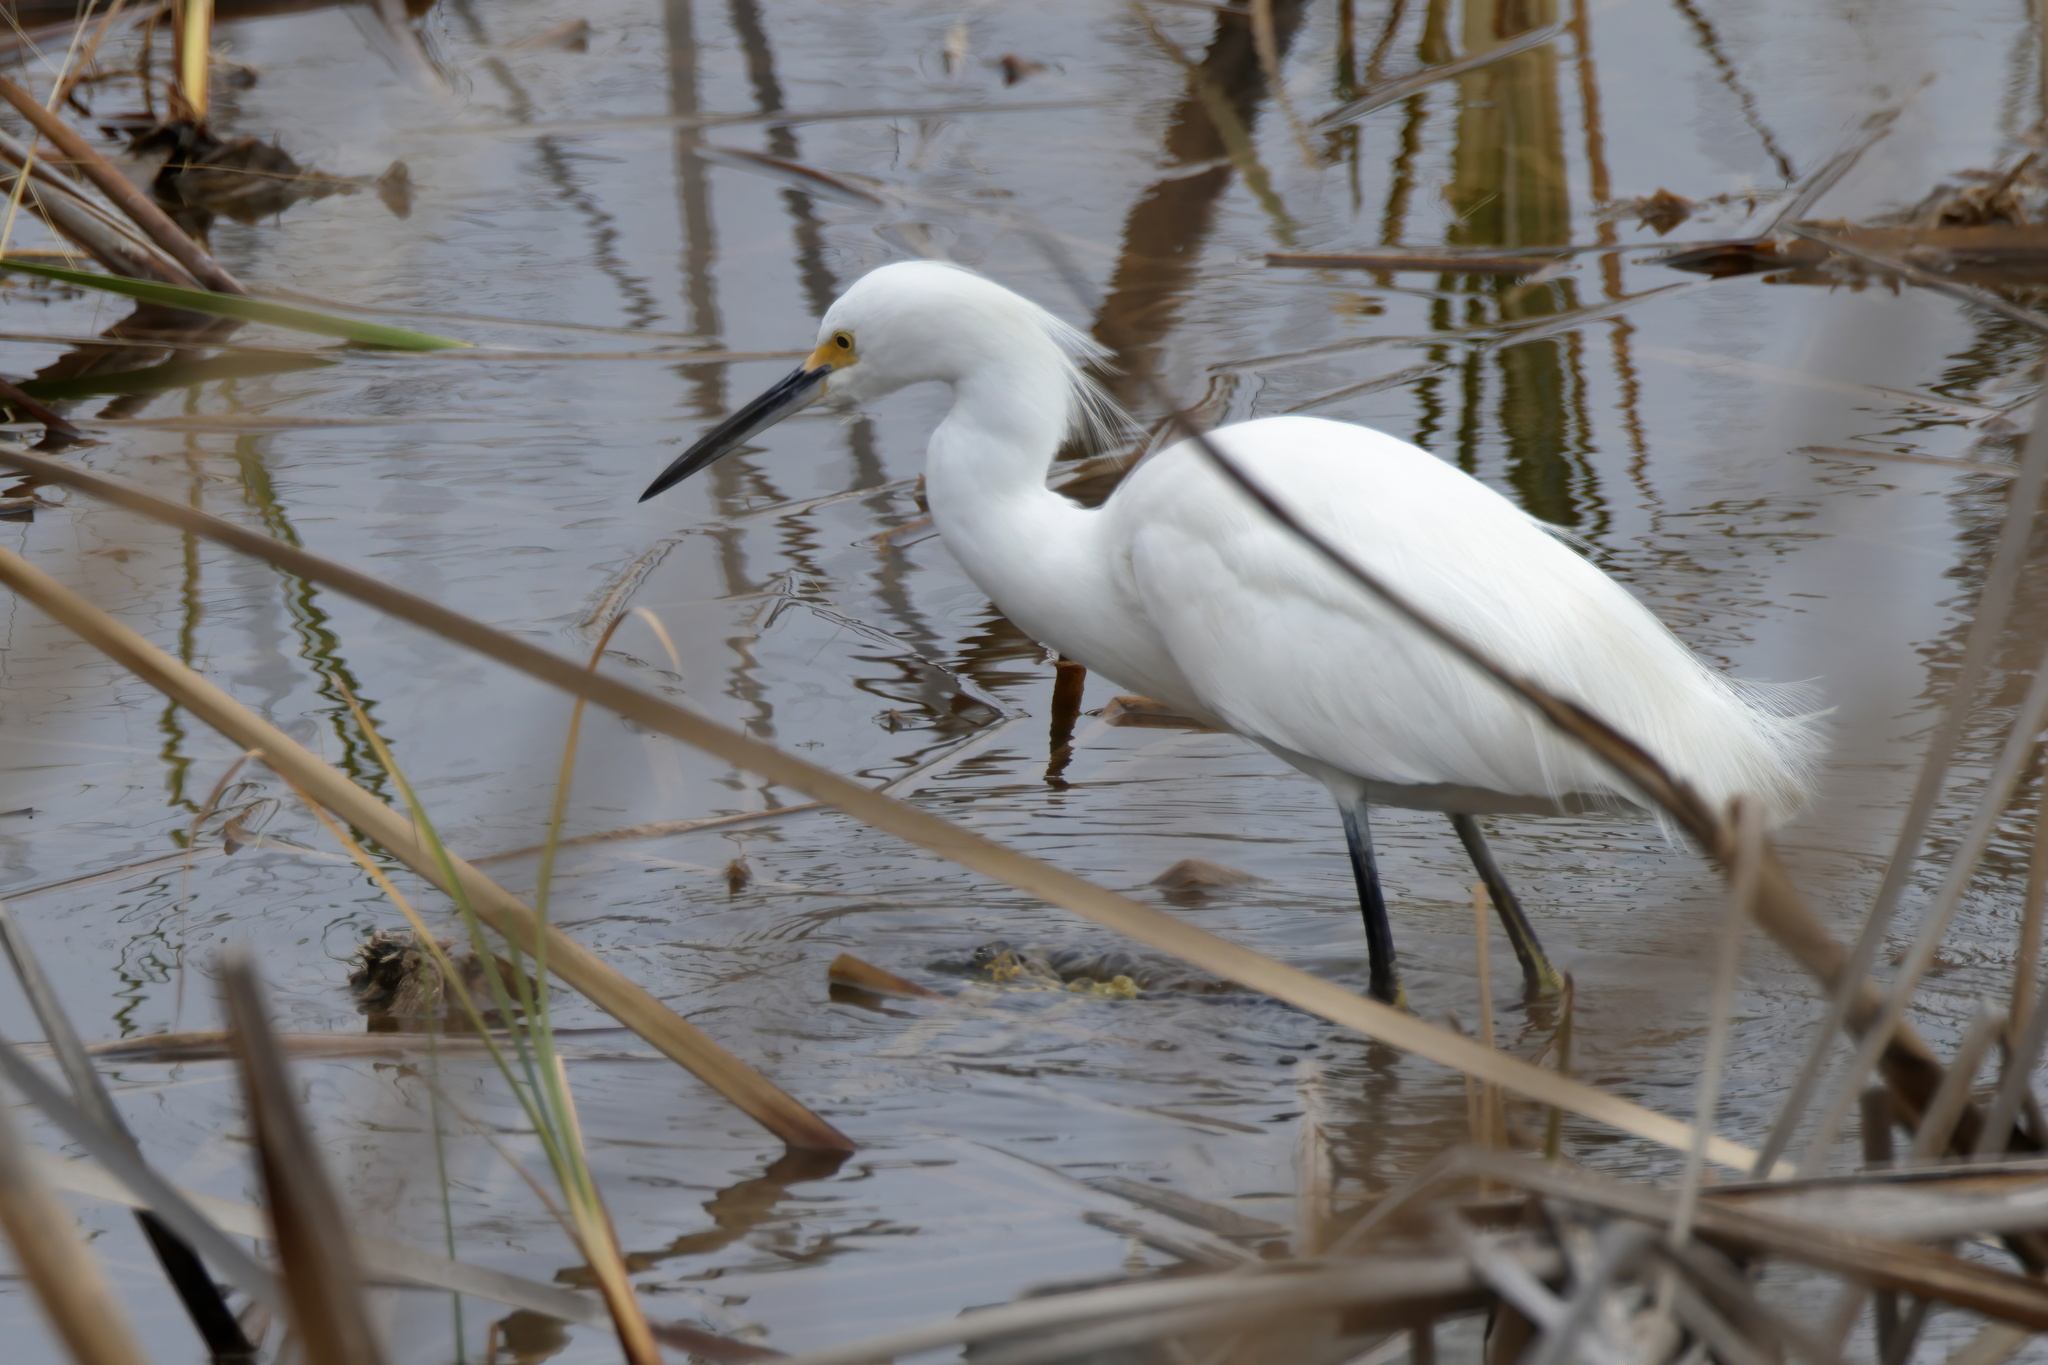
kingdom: Animalia
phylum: Chordata
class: Aves
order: Pelecaniformes
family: Ardeidae
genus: Egretta
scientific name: Egretta thula
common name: Snowy egret
